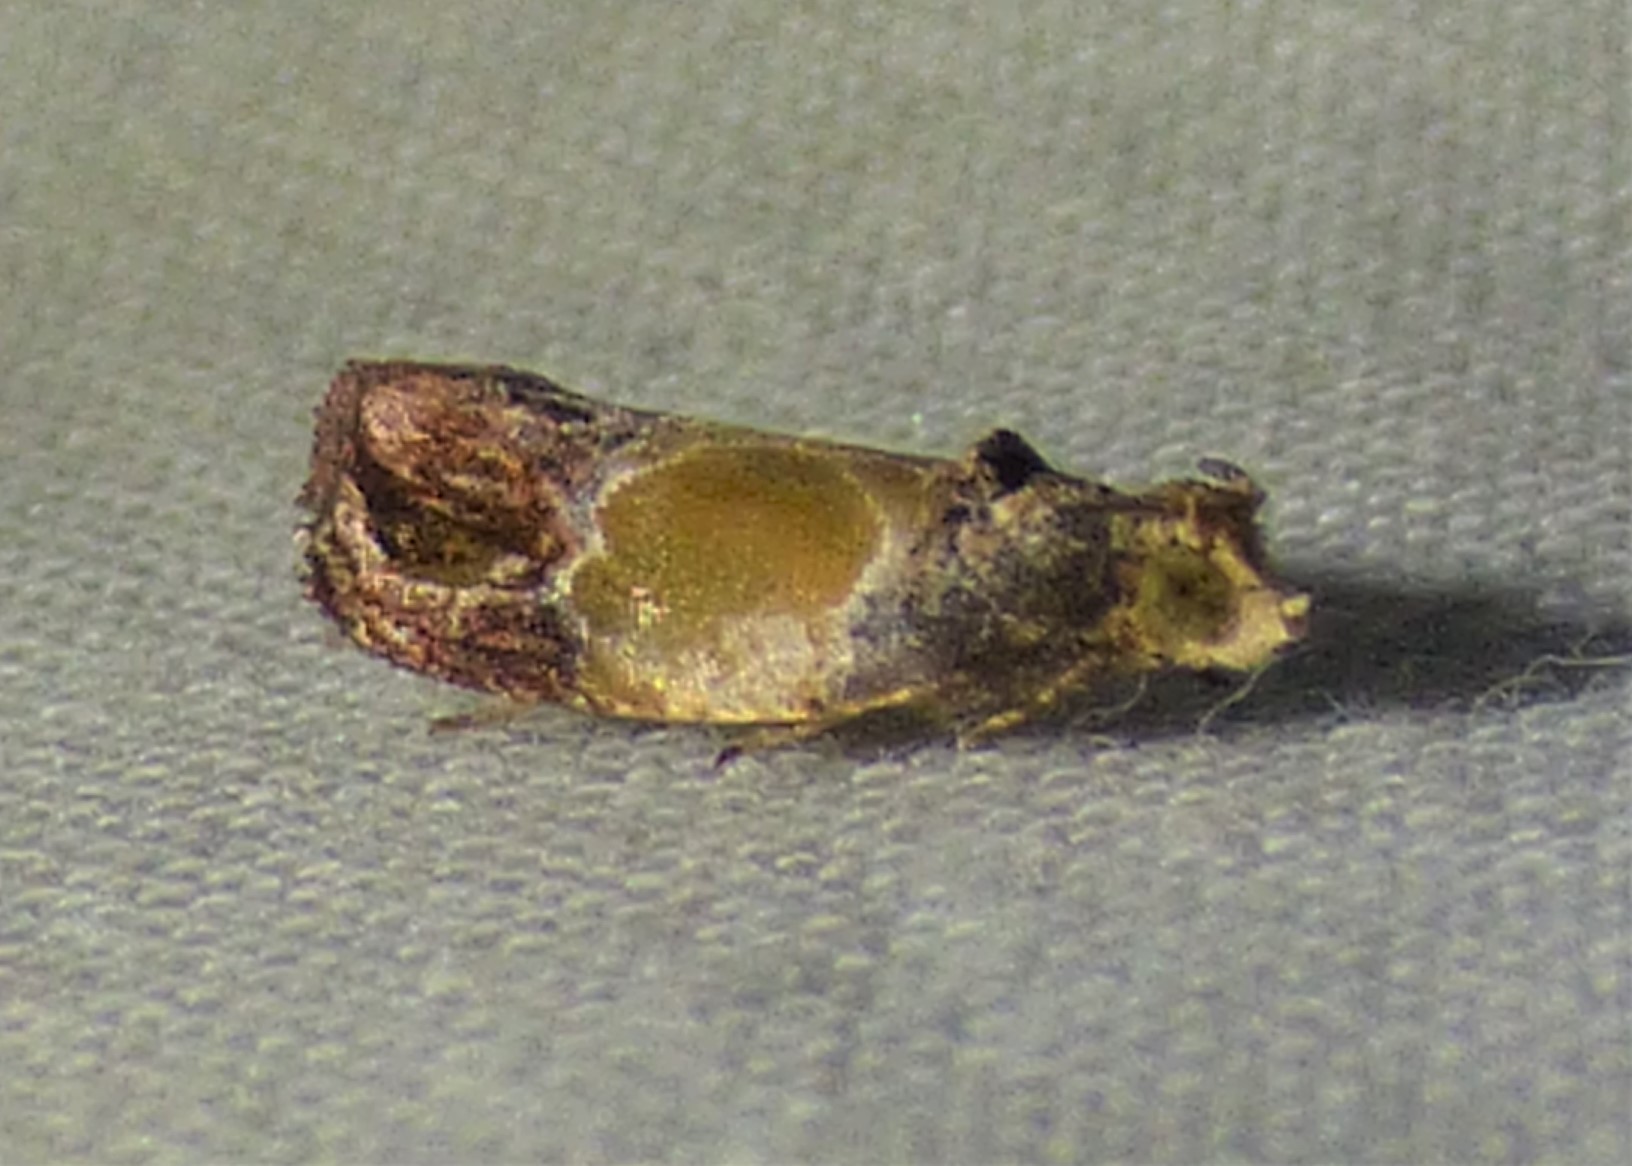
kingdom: Animalia
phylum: Arthropoda
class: Insecta
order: Lepidoptera
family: Tortricidae
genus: Eumarozia
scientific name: Eumarozia malachitana
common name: Sculptured moth
